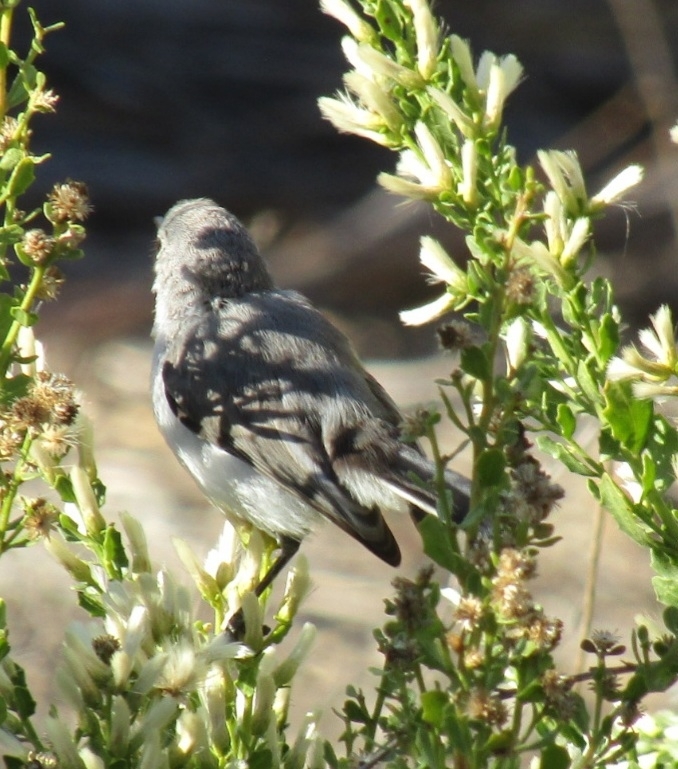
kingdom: Animalia
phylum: Chordata
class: Aves
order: Passeriformes
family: Polioptilidae
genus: Polioptila
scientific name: Polioptila caerulea
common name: Blue-gray gnatcatcher
